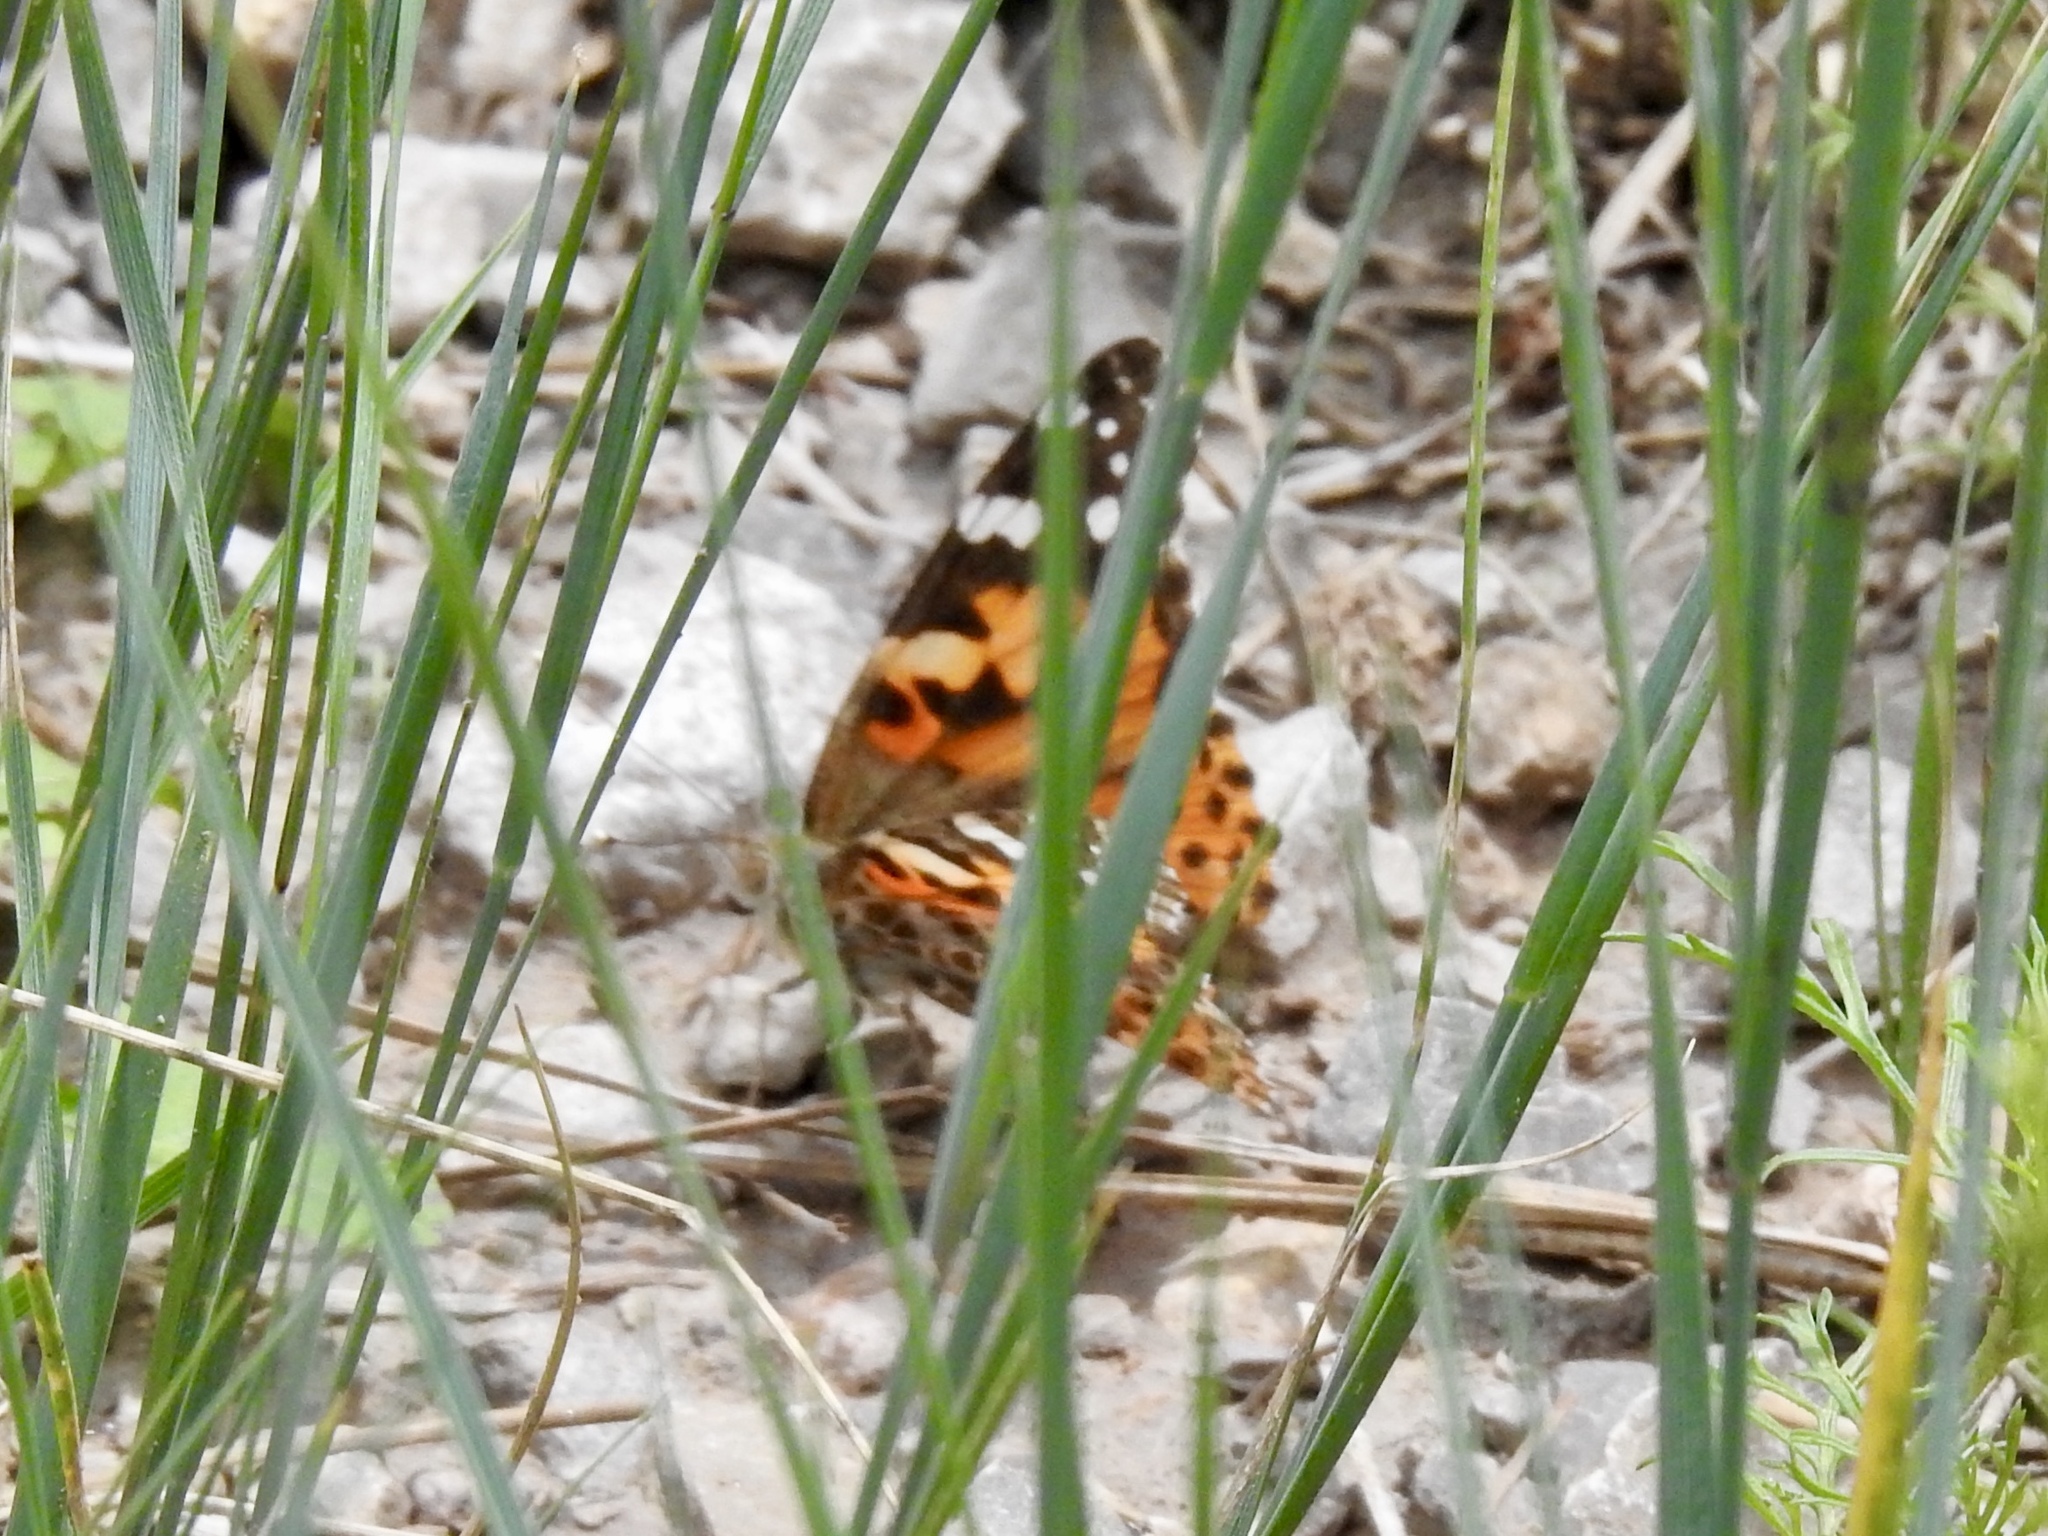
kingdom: Animalia
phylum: Arthropoda
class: Insecta
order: Lepidoptera
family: Nymphalidae
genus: Vanessa
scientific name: Vanessa cardui
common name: Painted lady
